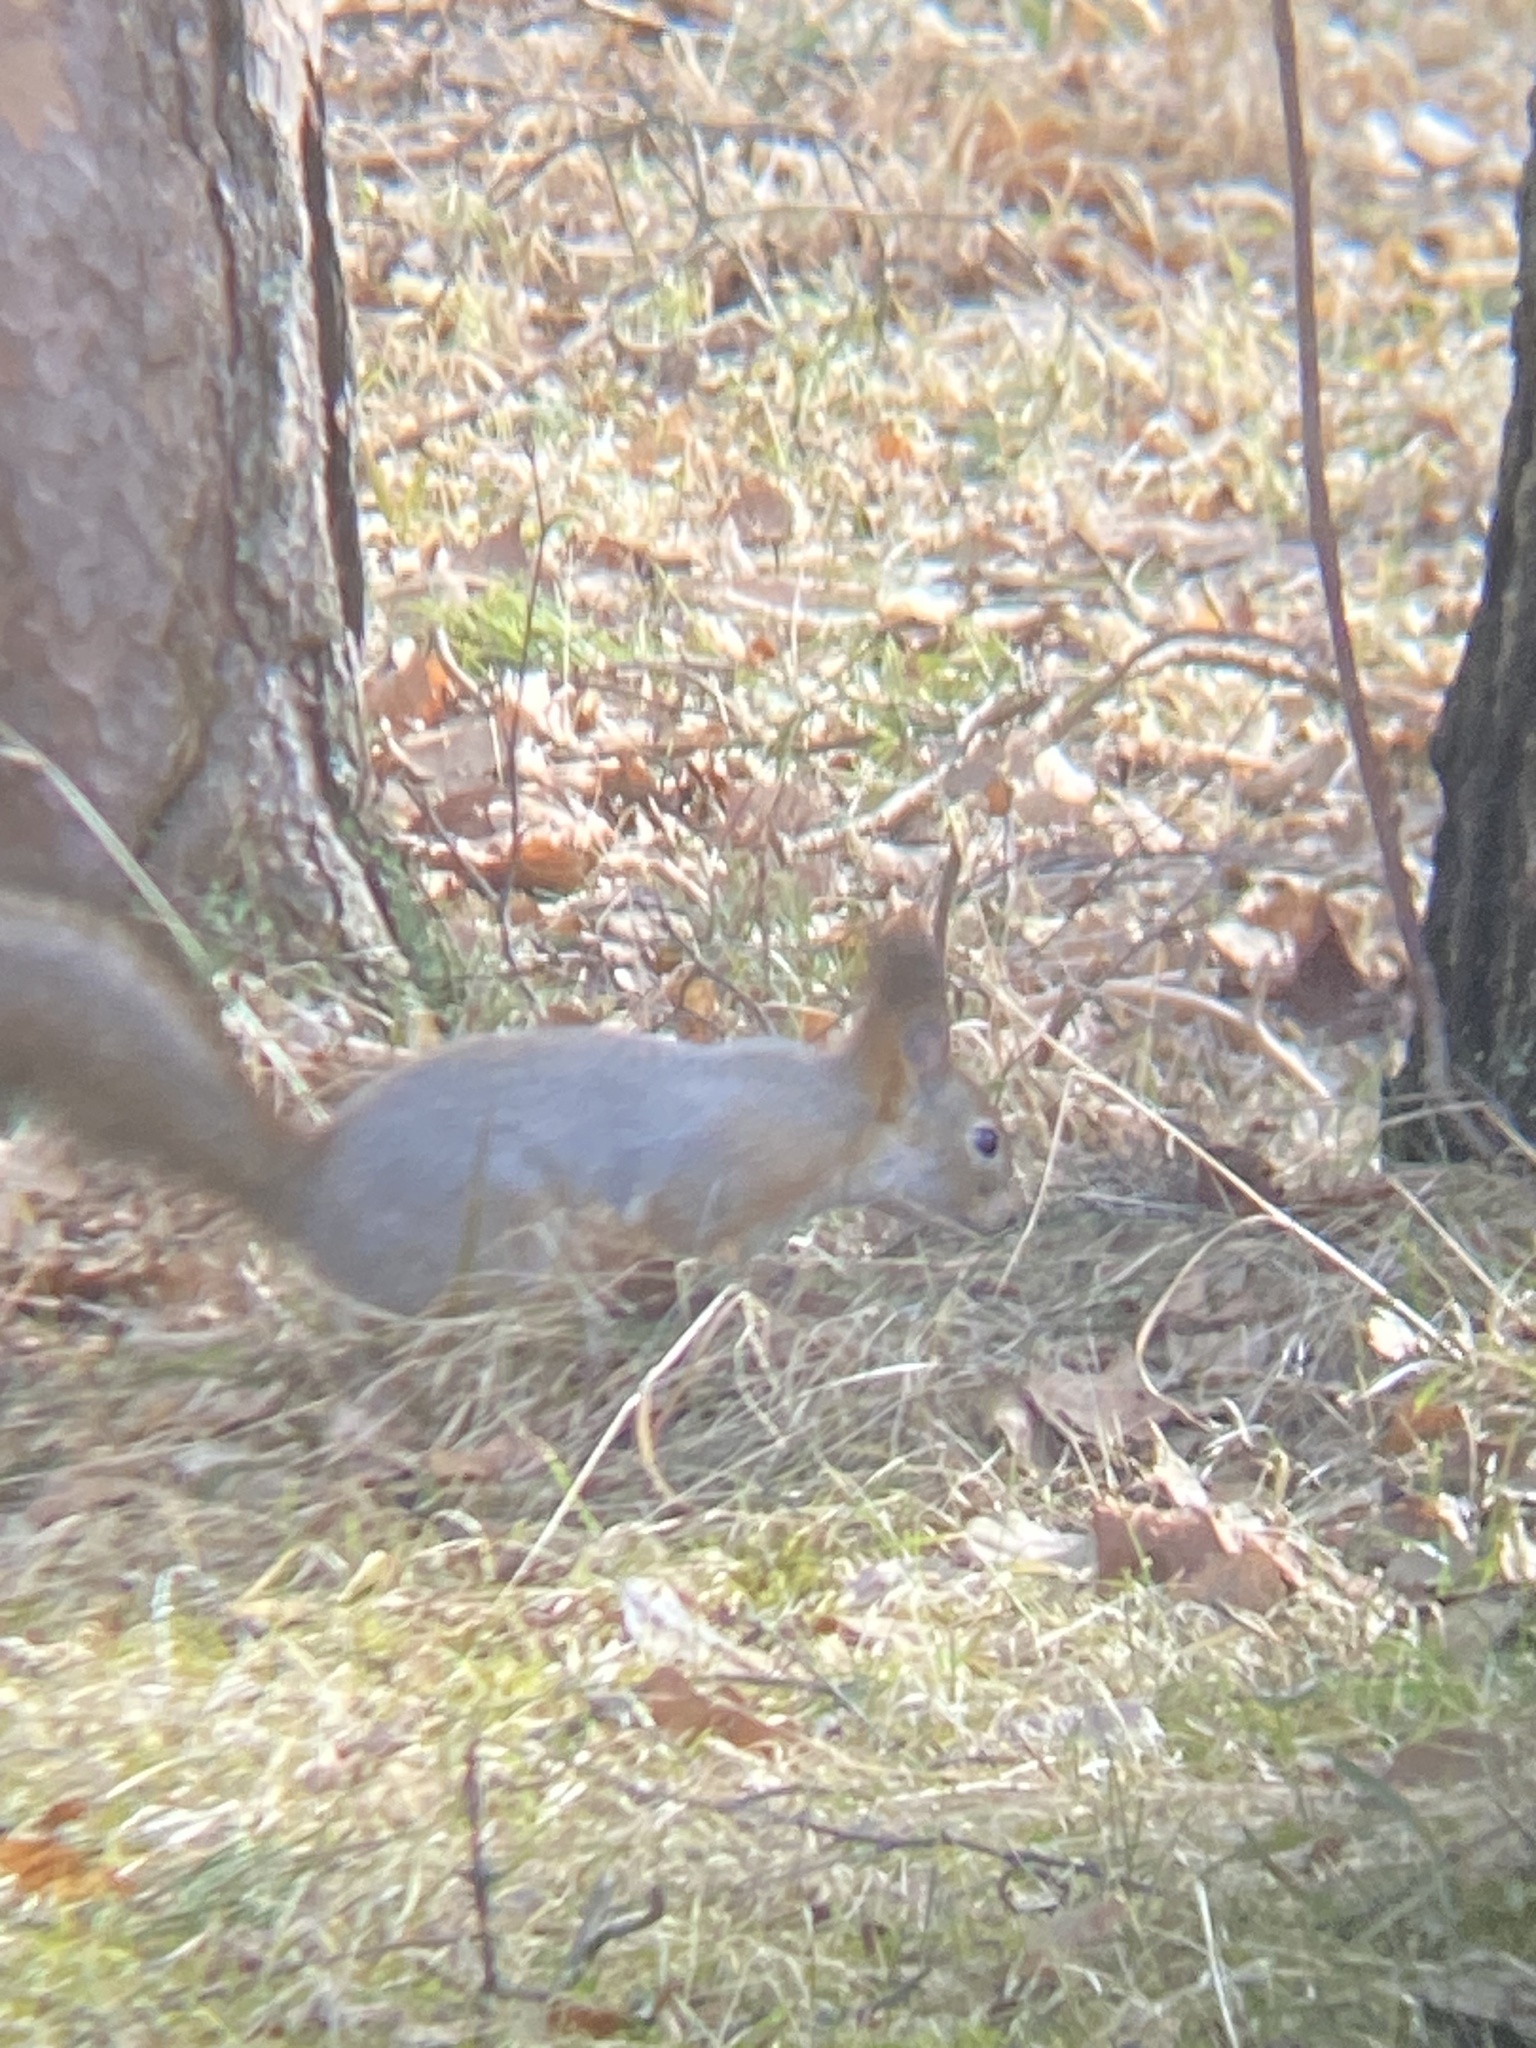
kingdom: Animalia
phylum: Chordata
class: Mammalia
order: Rodentia
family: Sciuridae
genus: Sciurus
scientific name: Sciurus vulgaris
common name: Eurasian red squirrel
